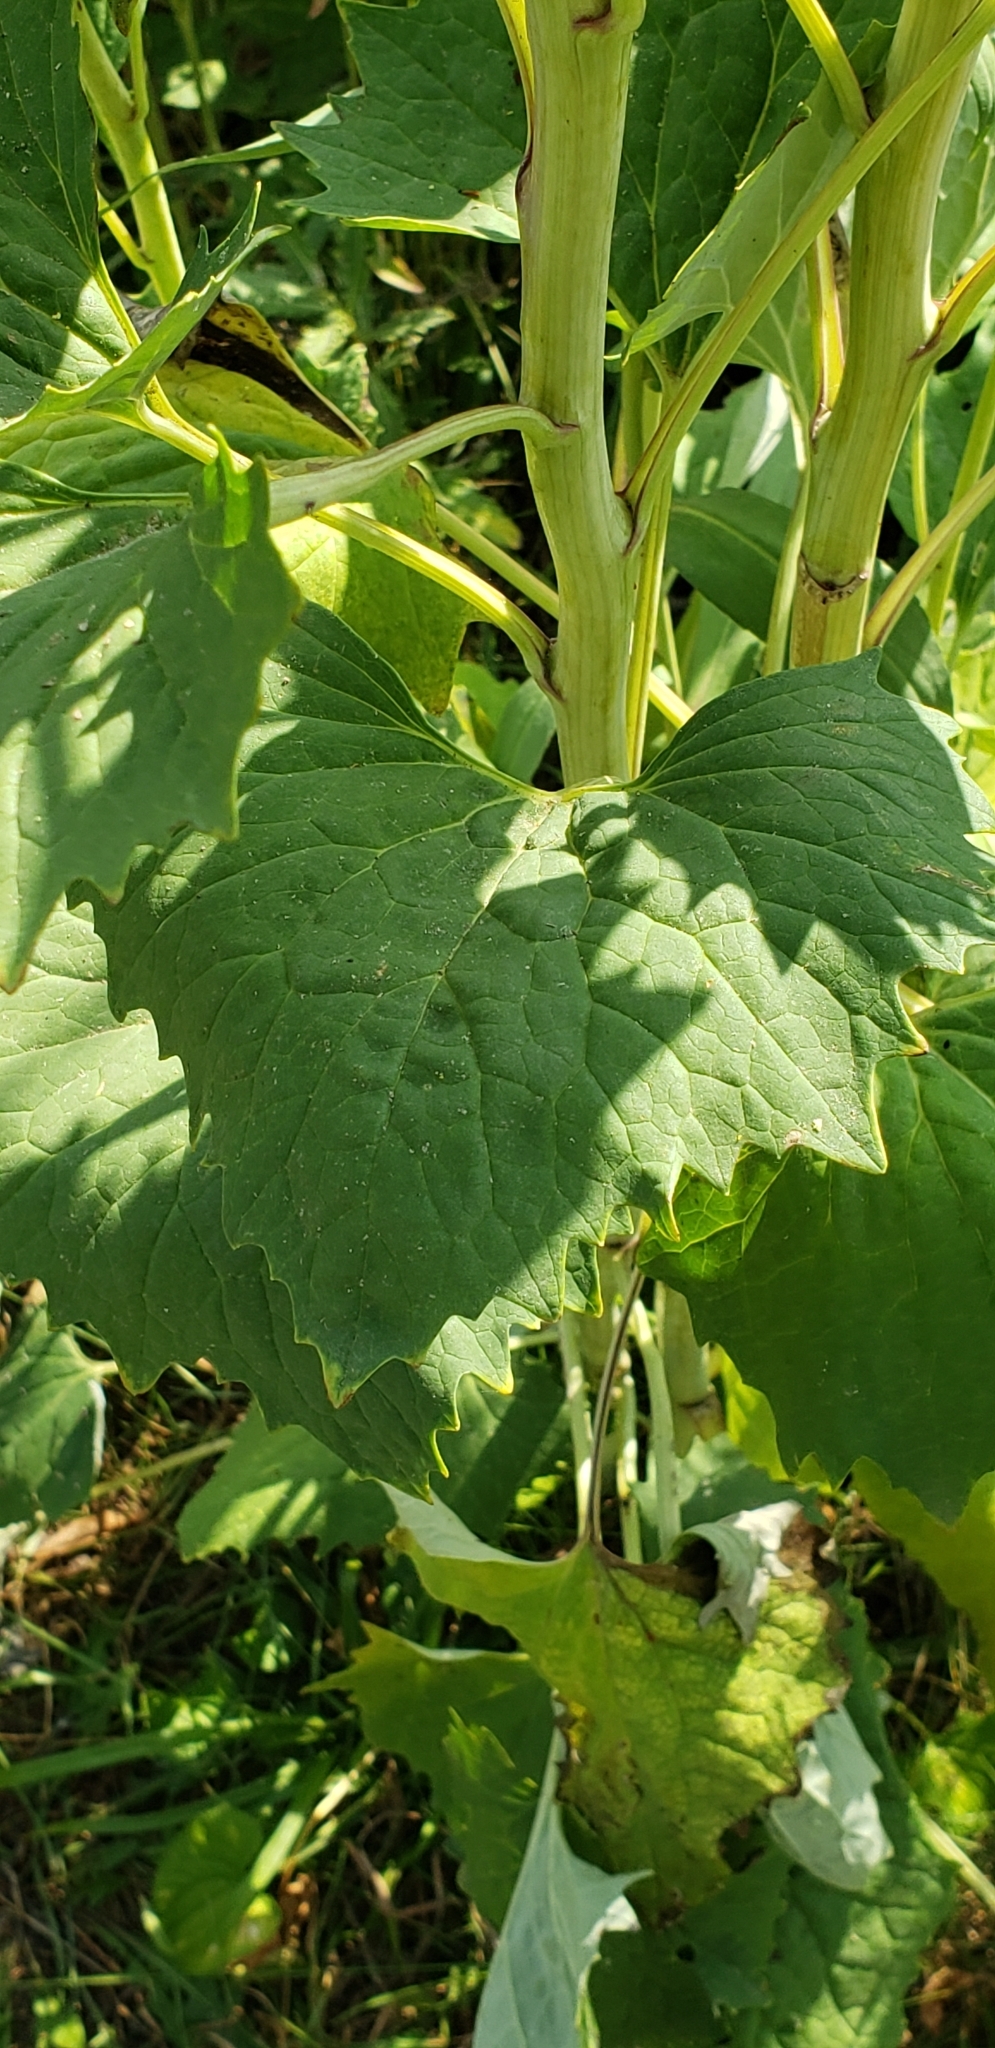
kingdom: Plantae
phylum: Tracheophyta
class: Magnoliopsida
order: Asterales
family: Asteraceae
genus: Arnoglossum
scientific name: Arnoglossum atriplicifolium
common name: Pale indian-plantain
